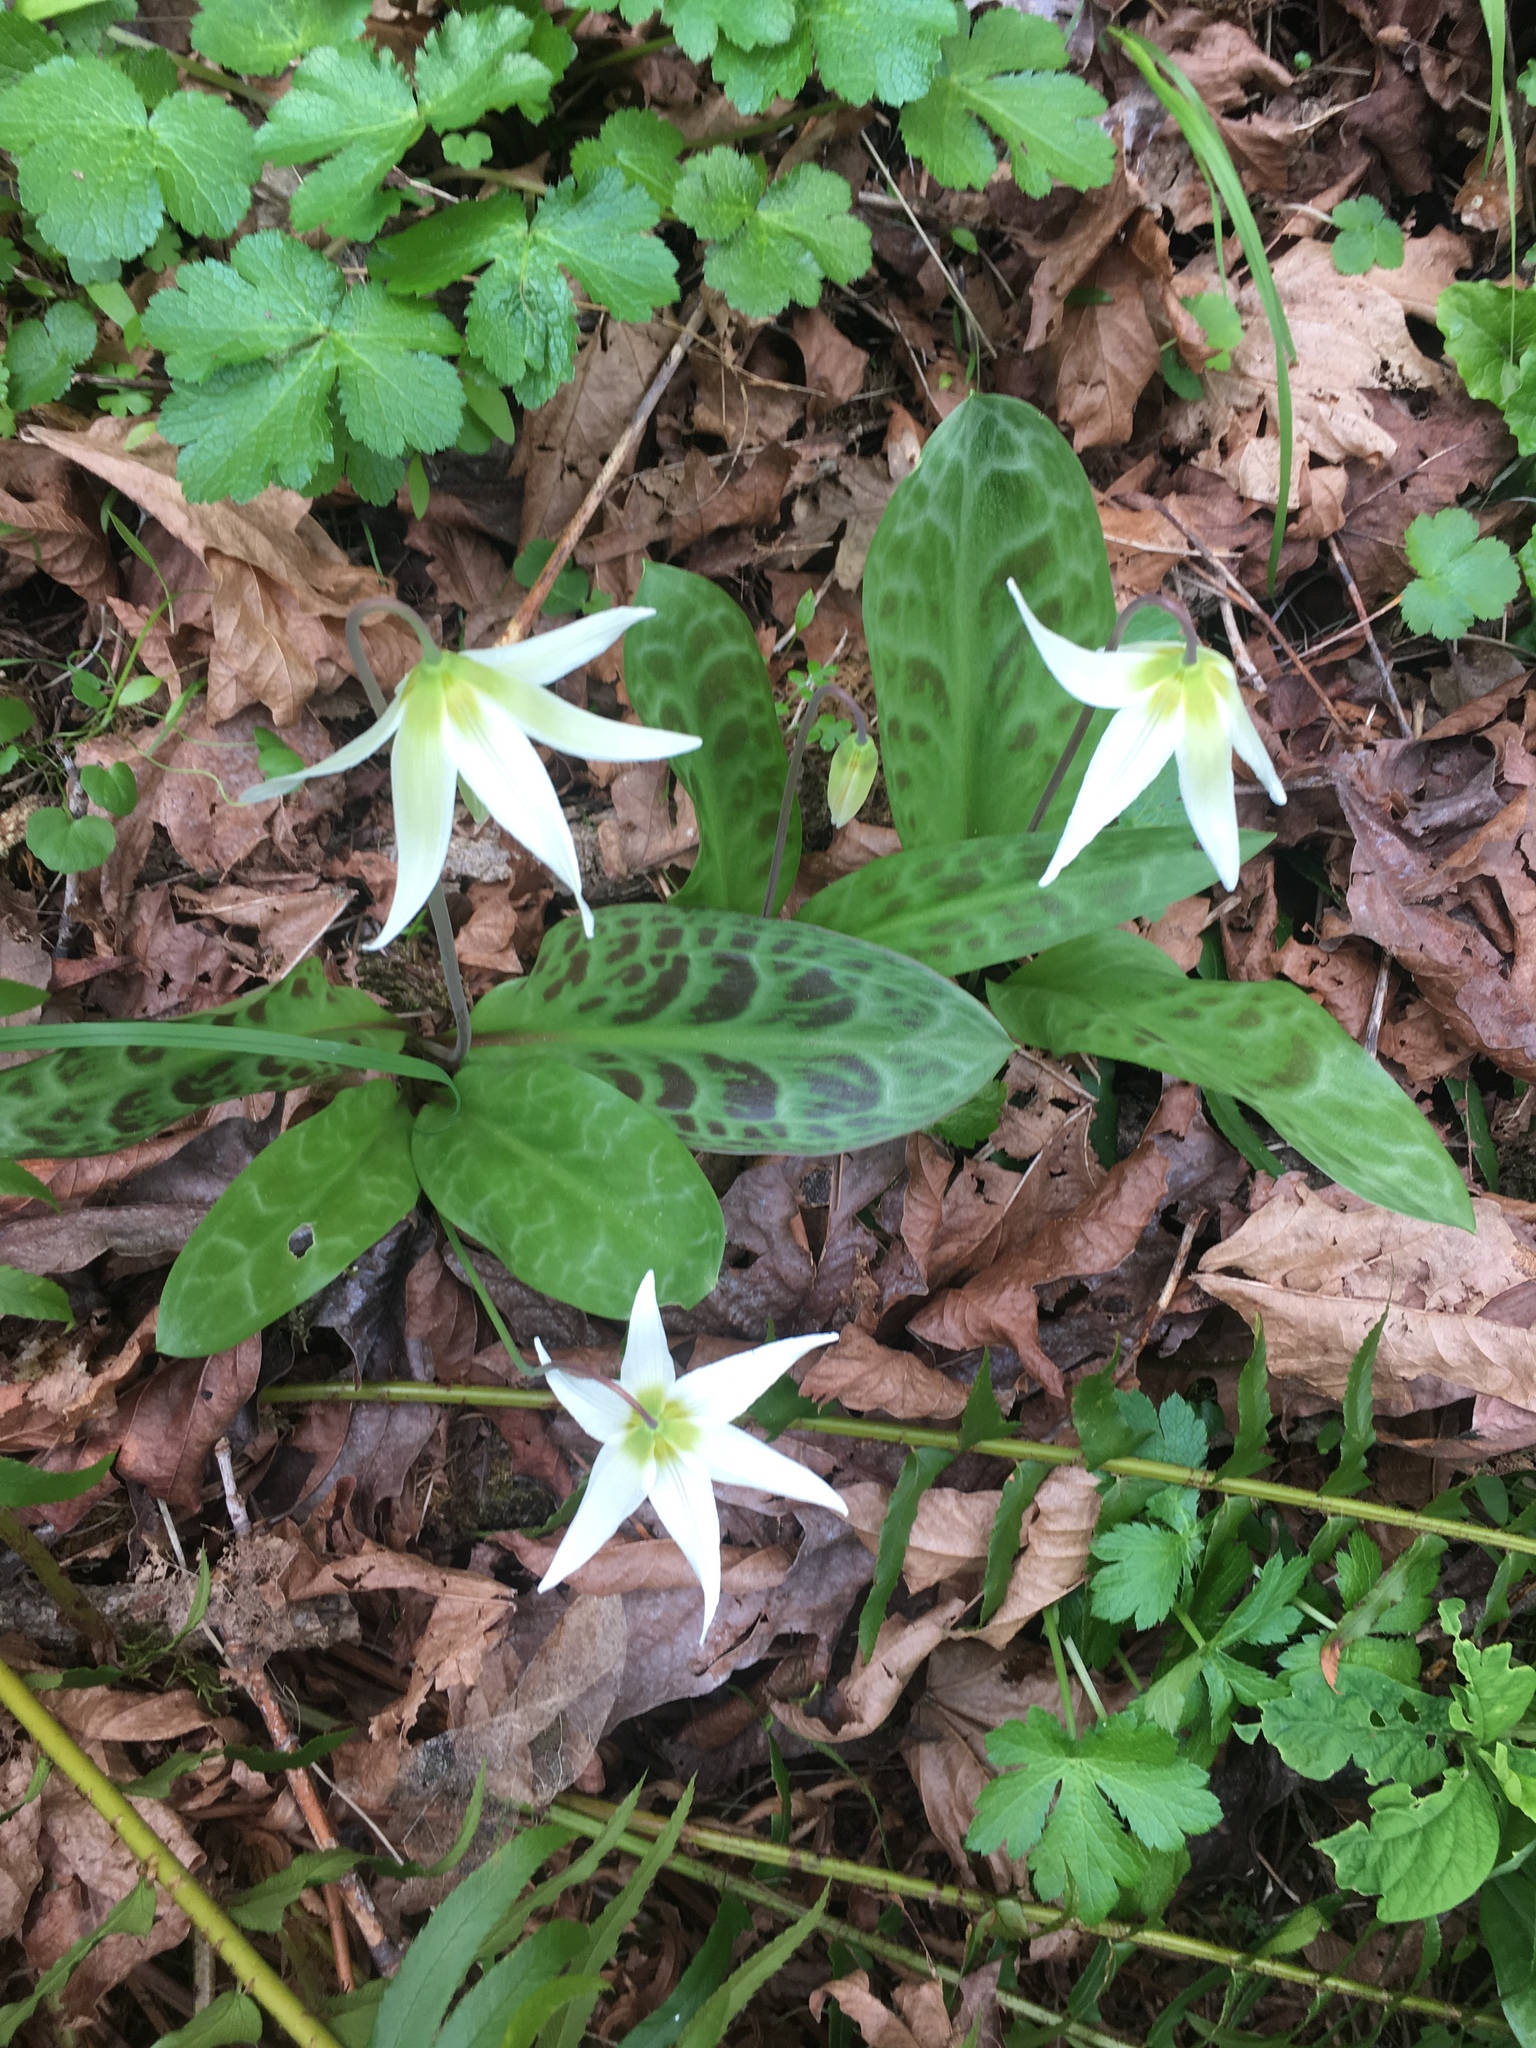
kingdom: Plantae
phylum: Tracheophyta
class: Liliopsida
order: Liliales
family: Liliaceae
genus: Erythronium
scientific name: Erythronium oregonum
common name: Giant adder's-tongue
